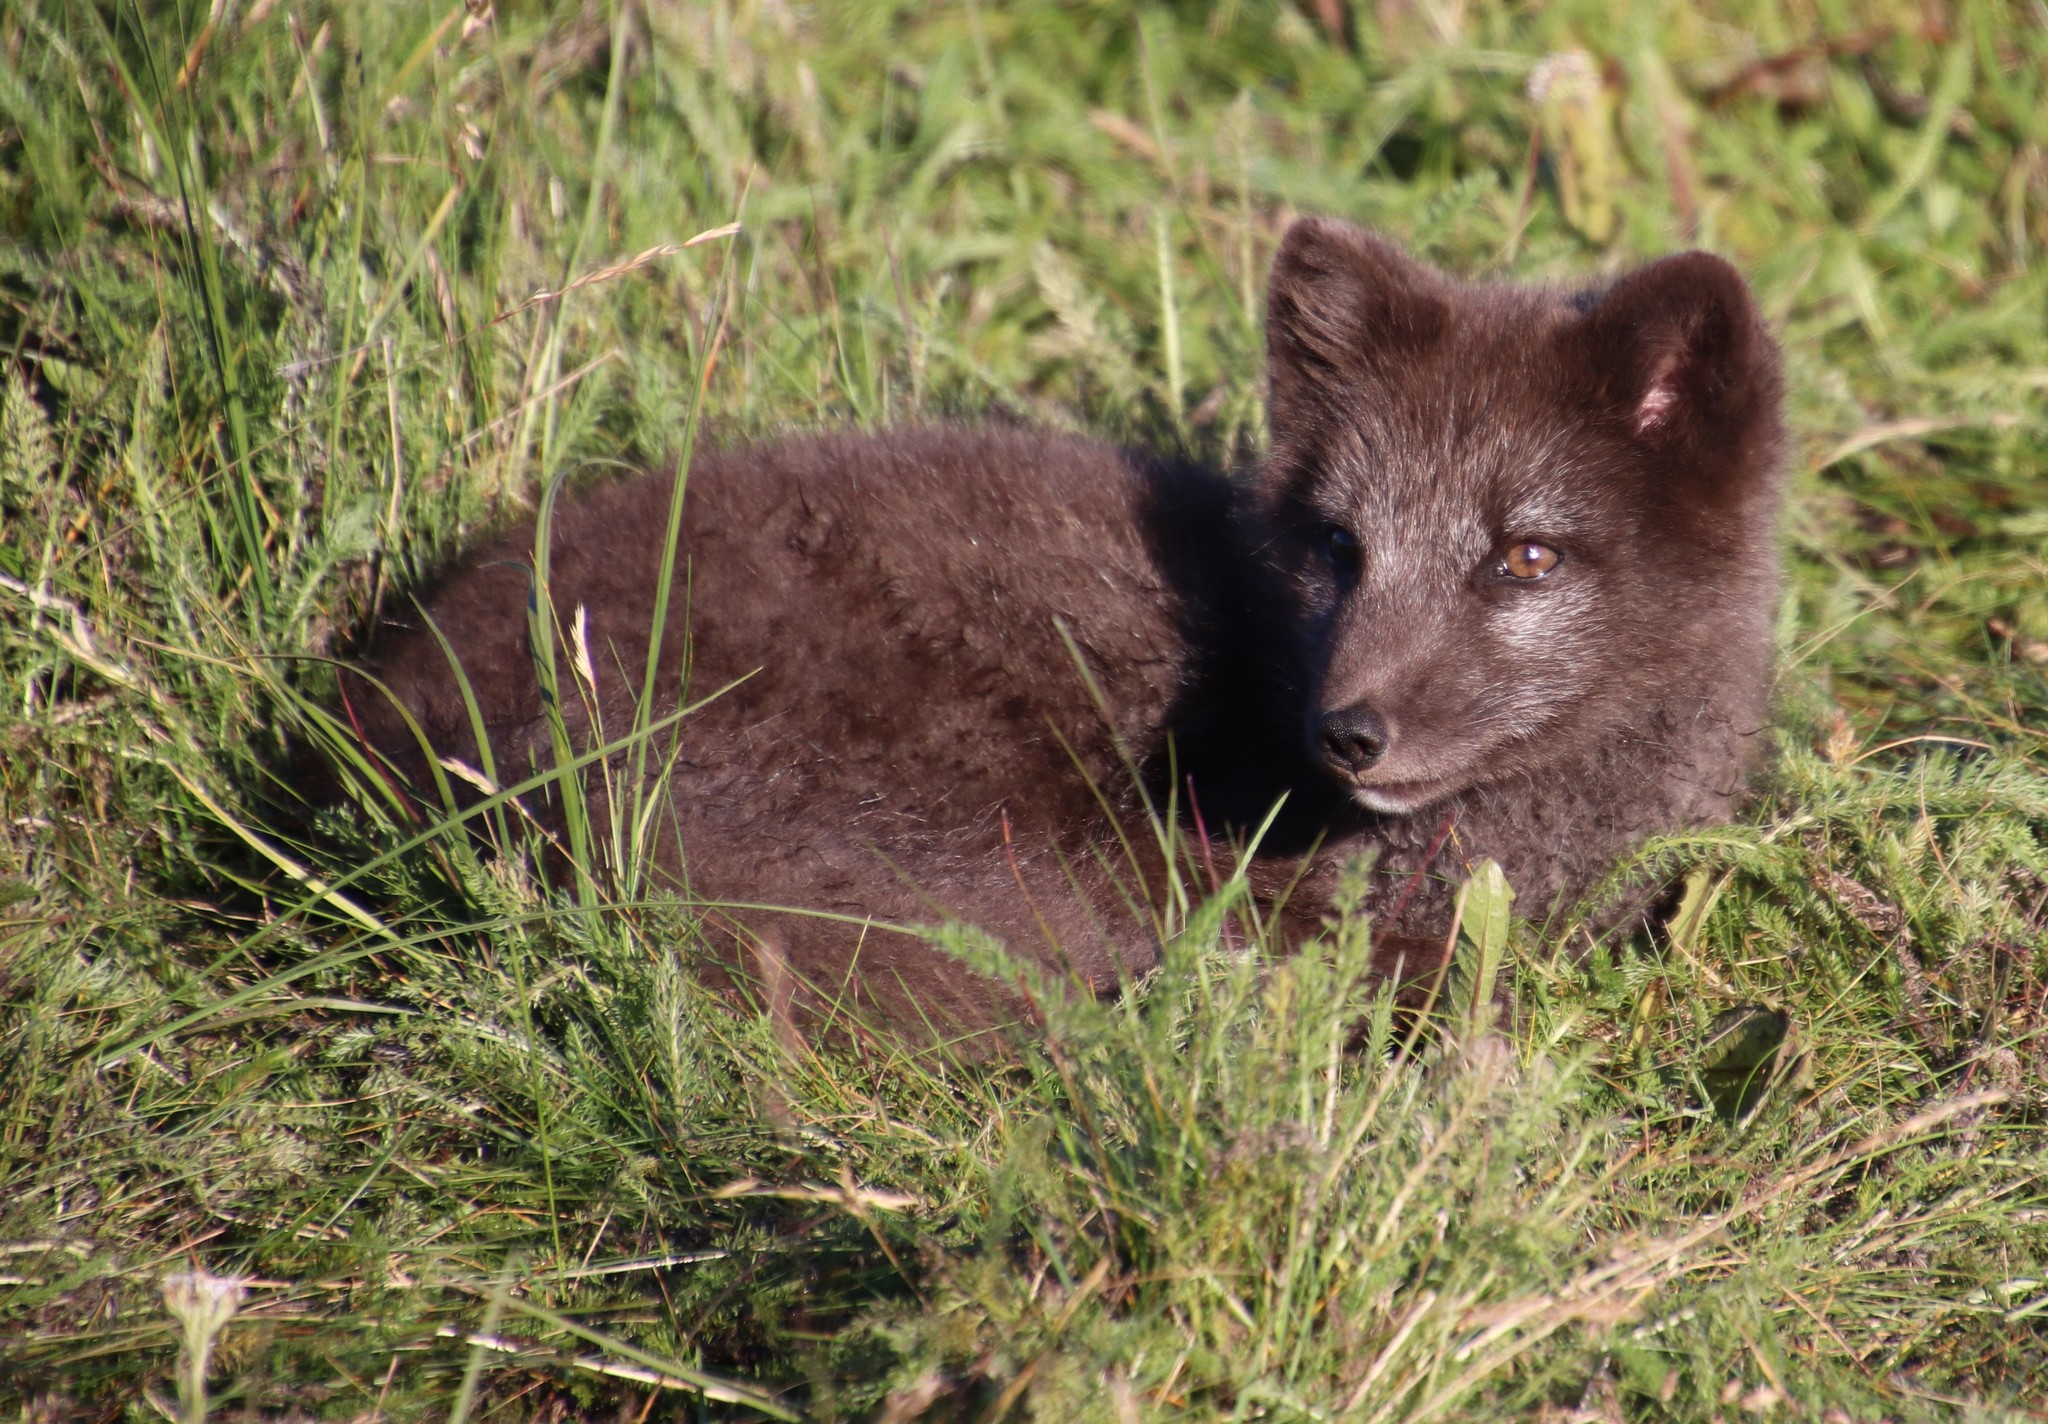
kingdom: Animalia
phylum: Chordata
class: Mammalia
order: Carnivora
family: Canidae
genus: Vulpes
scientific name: Vulpes lagopus
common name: Arctic fox
